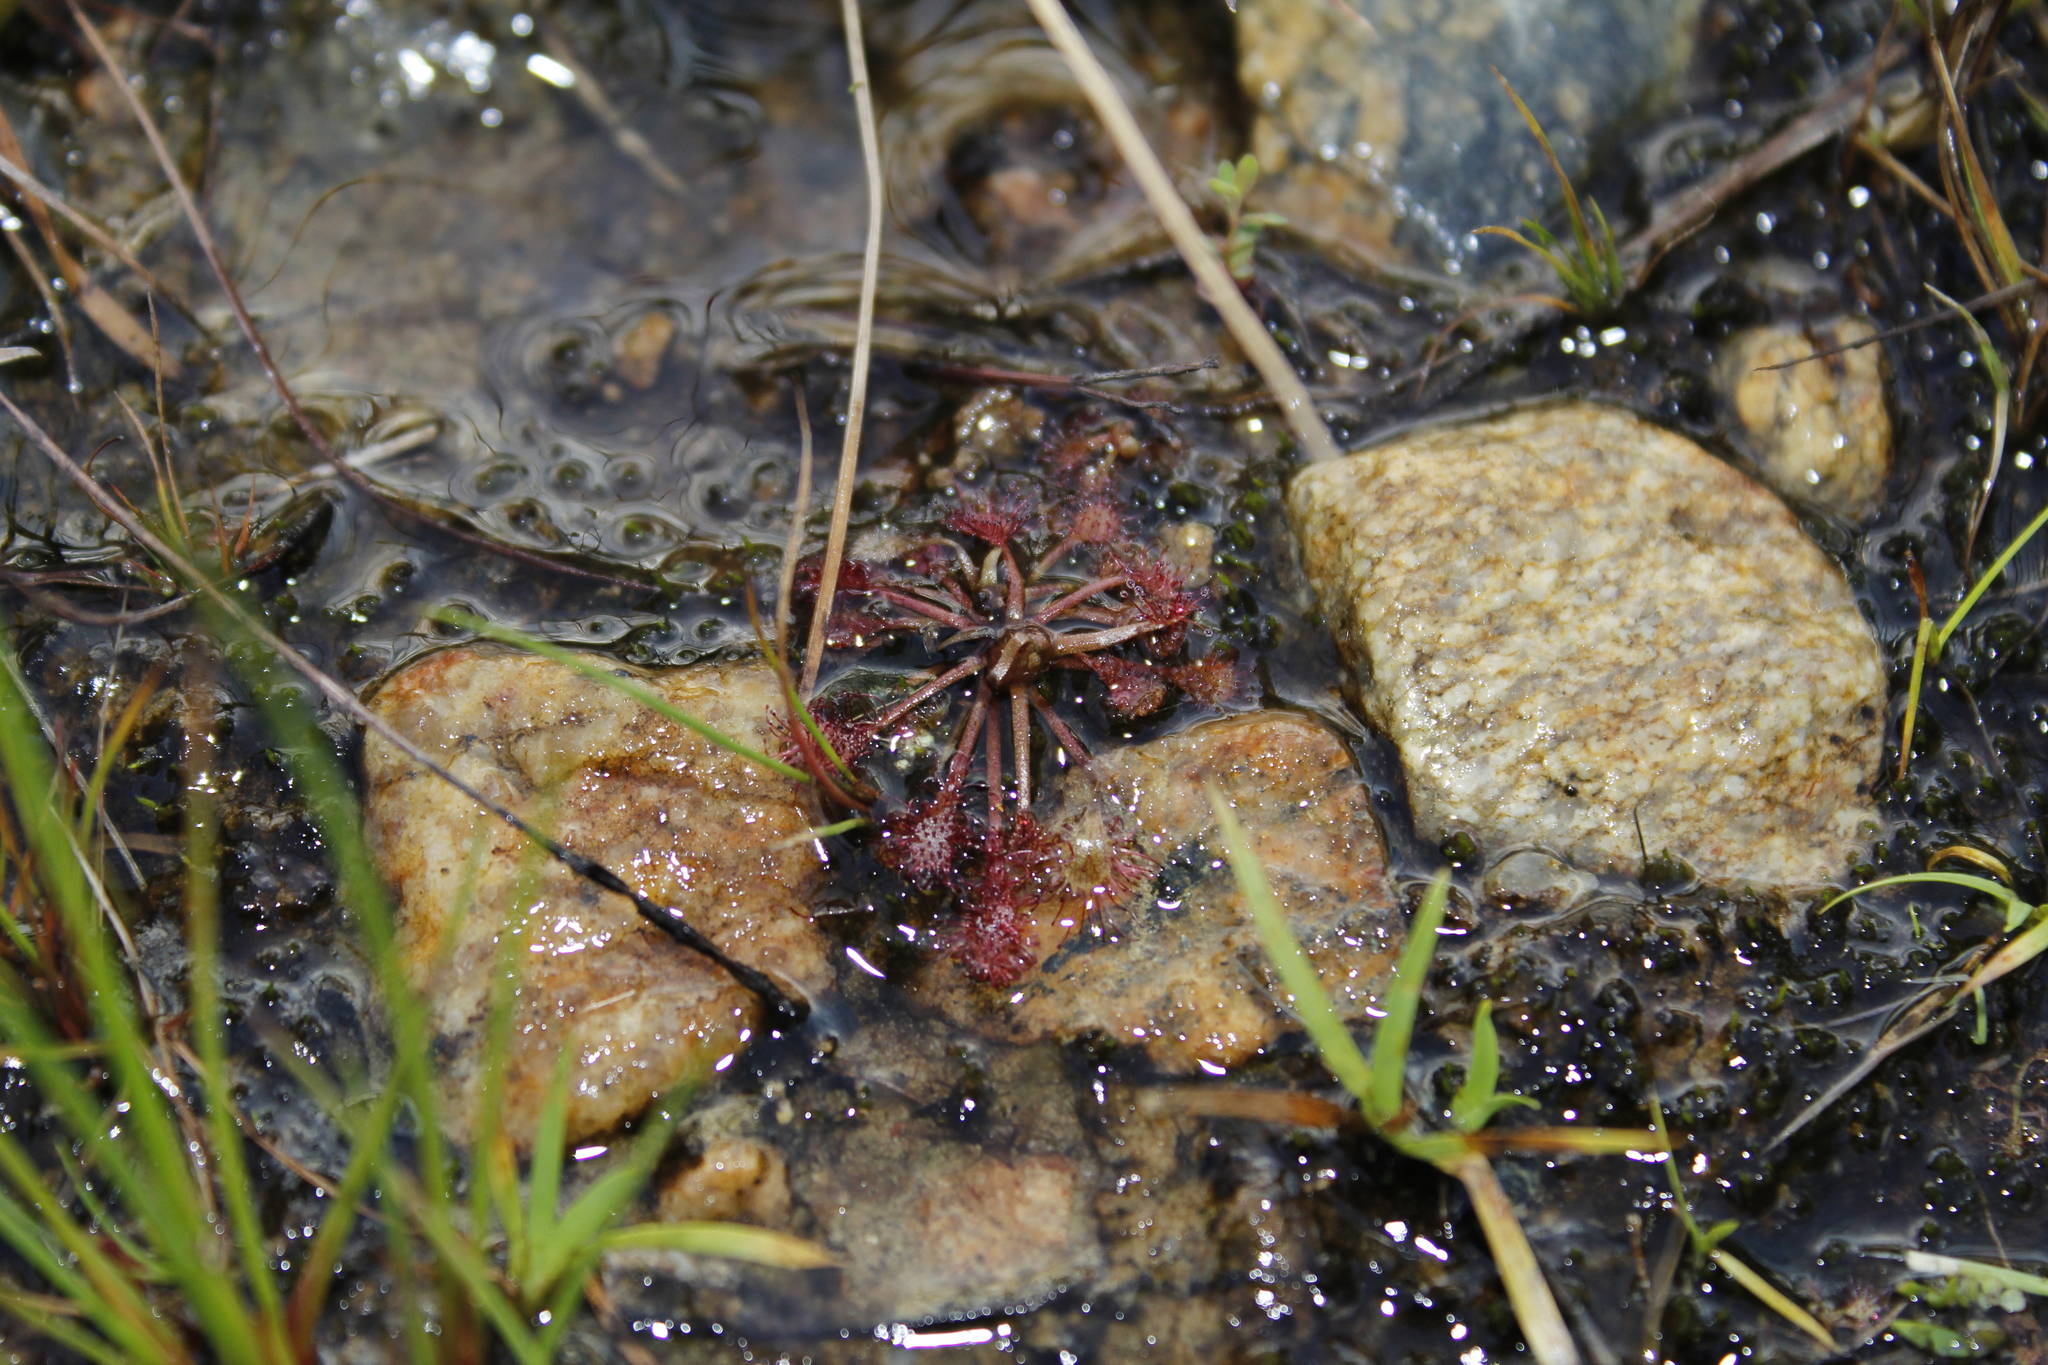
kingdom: Plantae
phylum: Tracheophyta
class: Magnoliopsida
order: Caryophyllales
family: Droseraceae
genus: Drosera
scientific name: Drosera intermedia
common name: Oblong-leaved sundew
